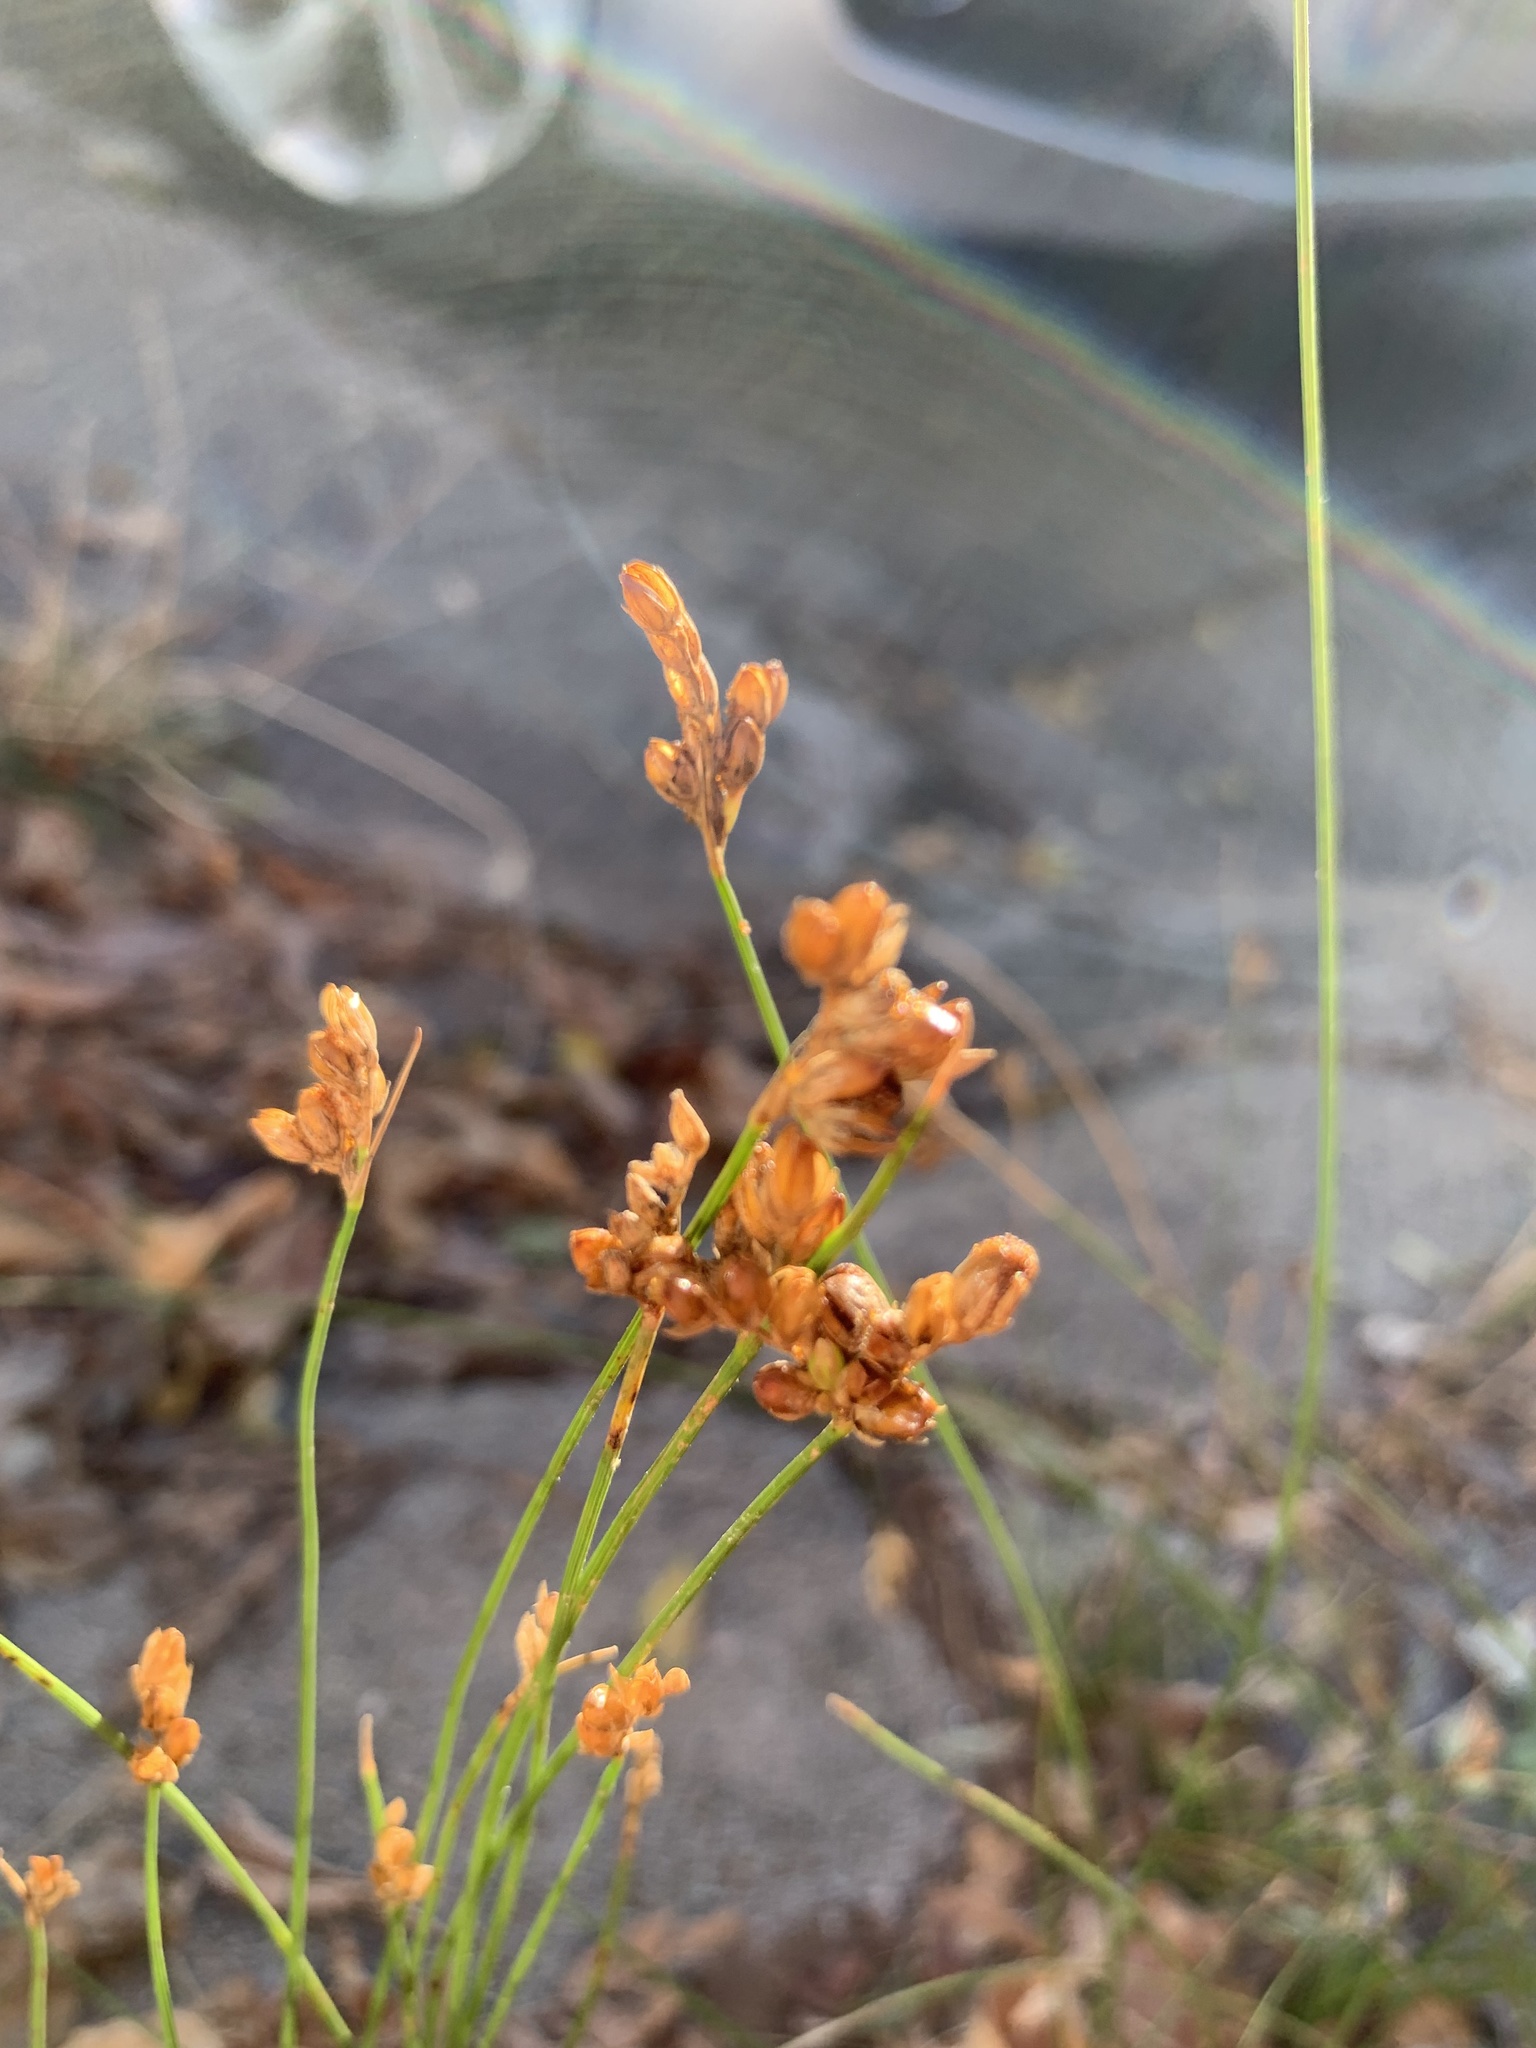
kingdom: Plantae
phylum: Tracheophyta
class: Liliopsida
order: Poales
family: Juncaceae
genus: Juncus
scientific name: Juncus imbricatus
